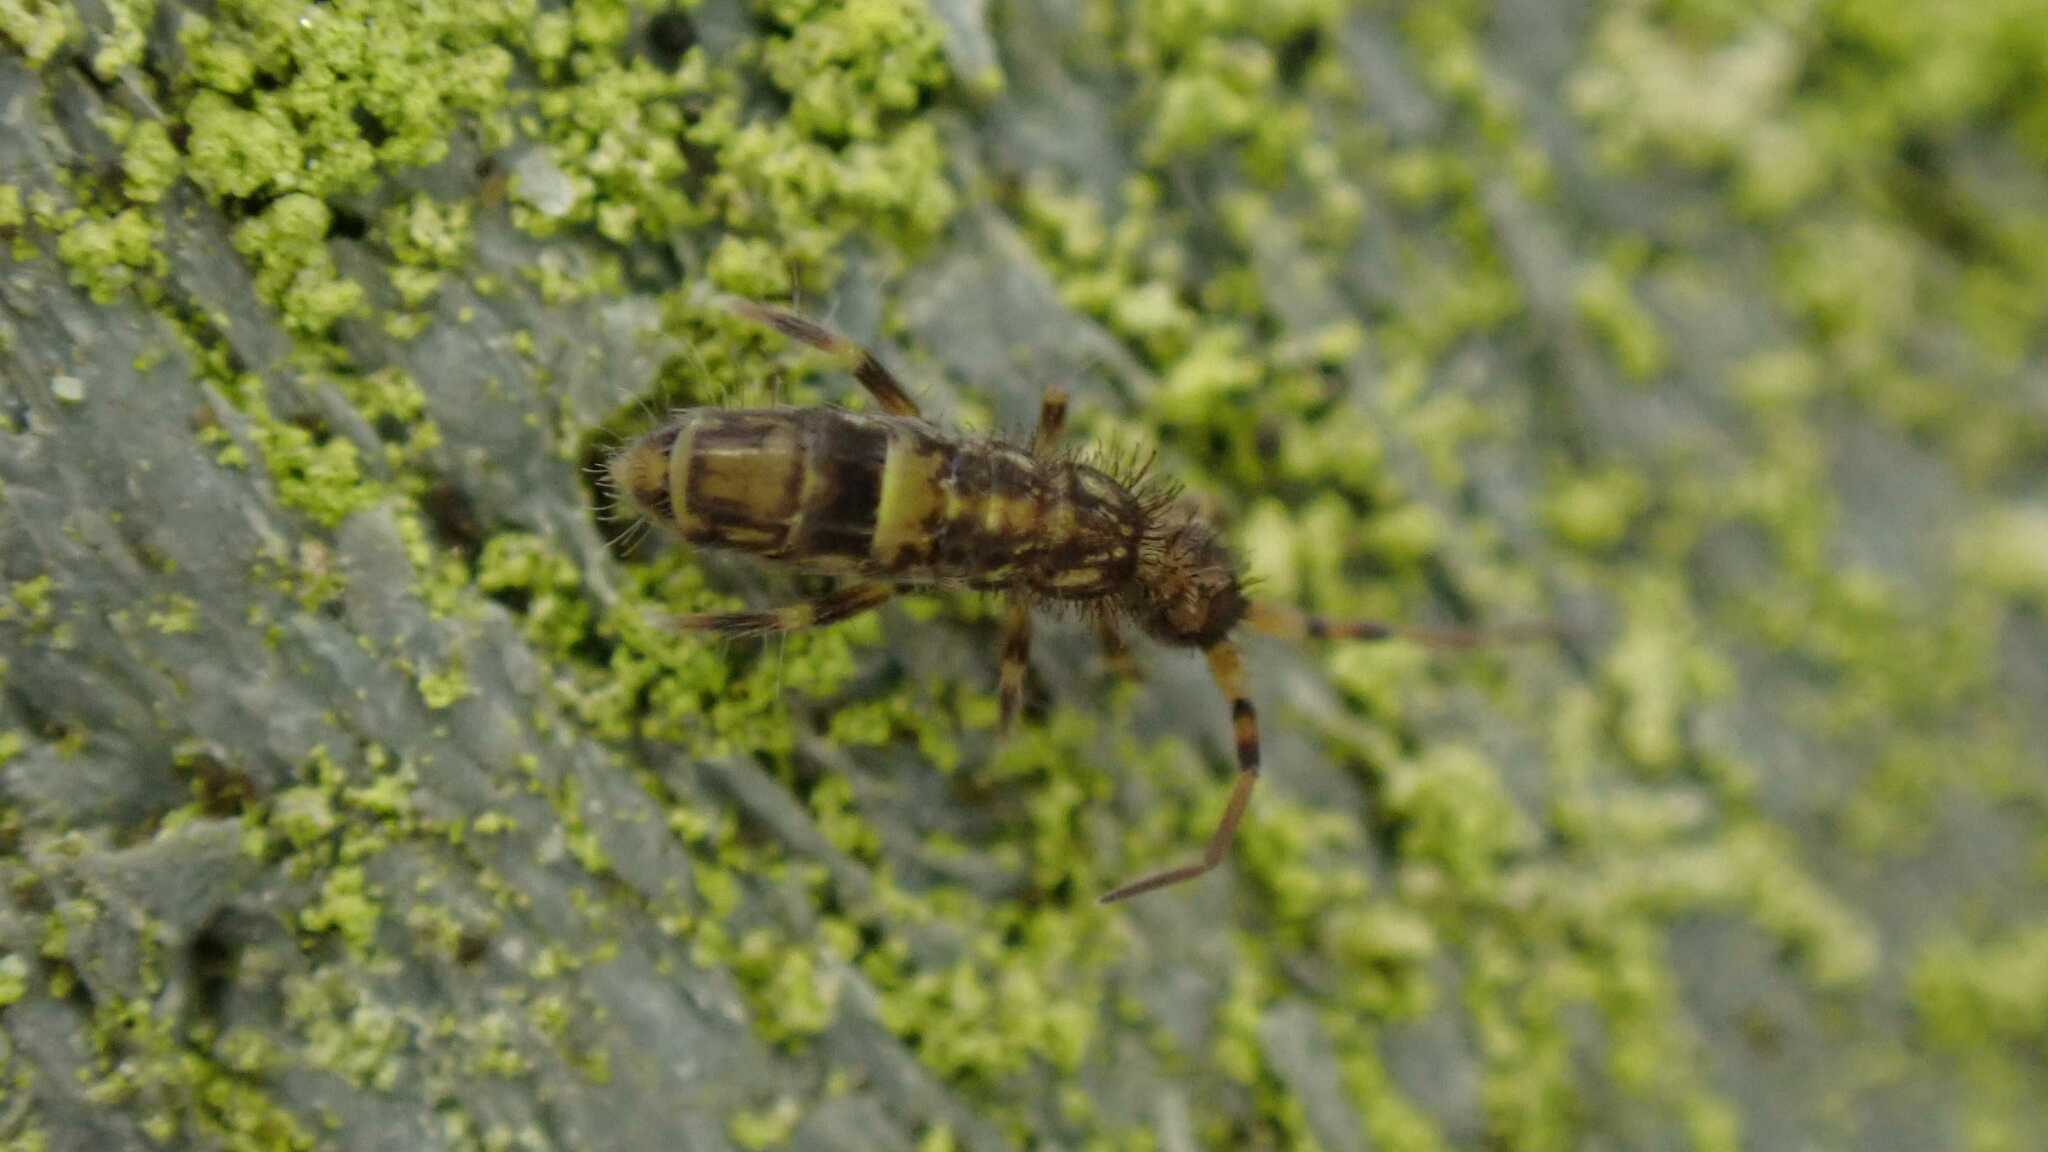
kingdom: Animalia
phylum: Arthropoda
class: Collembola
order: Entomobryomorpha
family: Orchesellidae
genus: Orchesella
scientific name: Orchesella cincta
